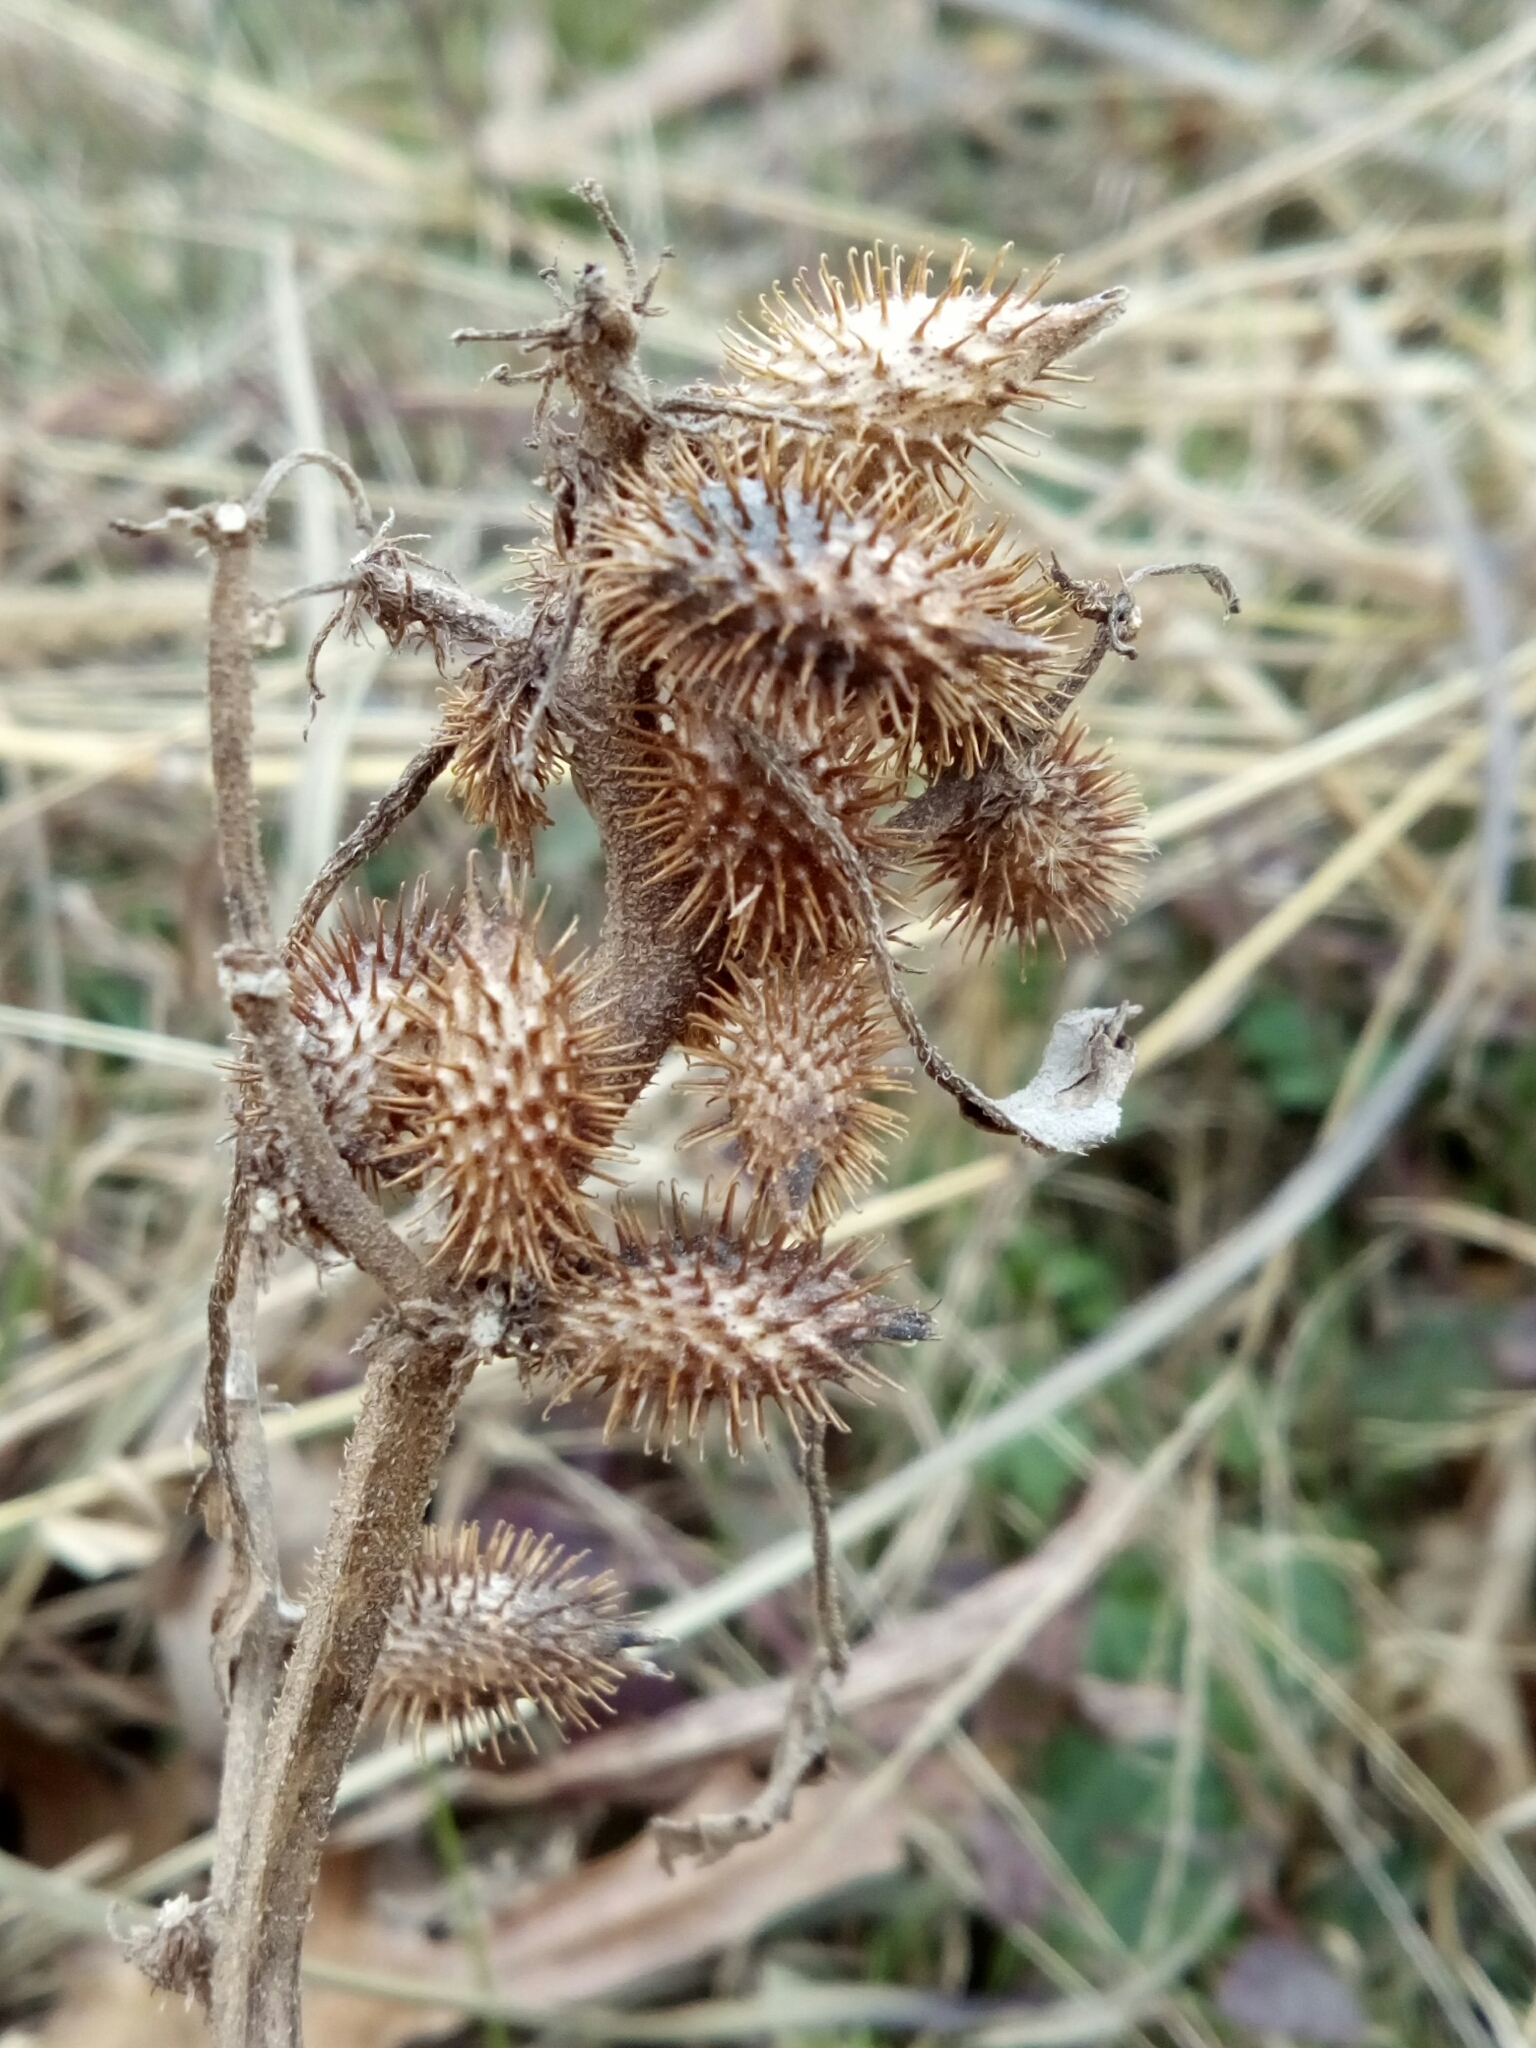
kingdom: Plantae
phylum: Tracheophyta
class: Magnoliopsida
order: Asterales
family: Asteraceae
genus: Xanthium
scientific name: Xanthium strumarium
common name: Rough cocklebur
